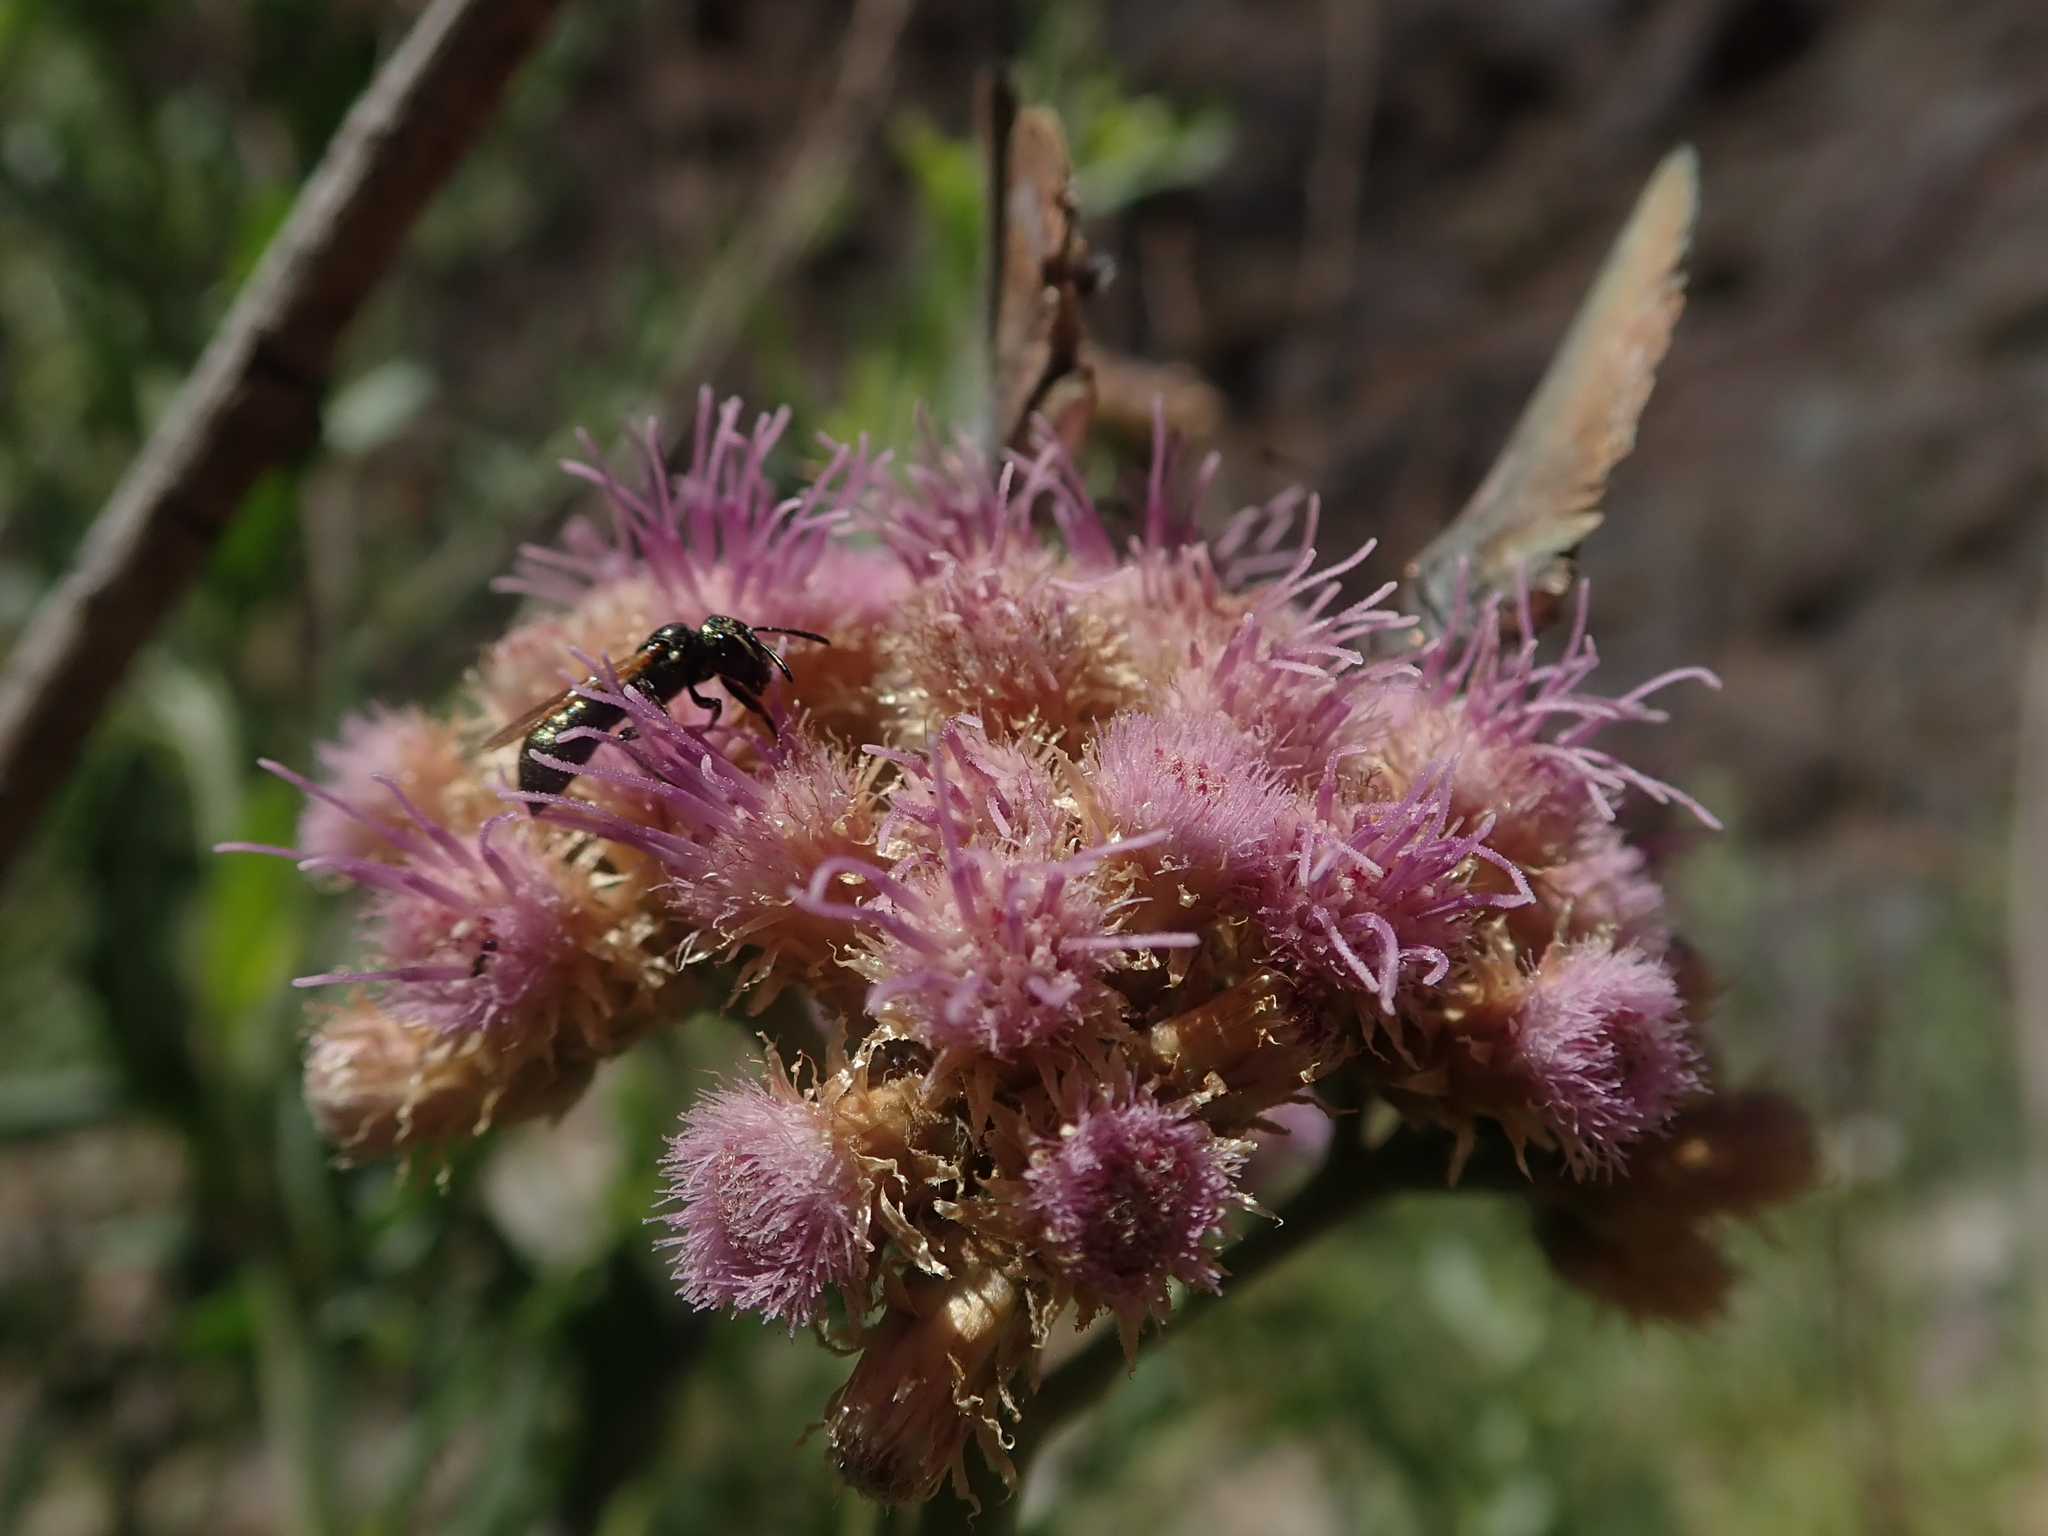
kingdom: Plantae
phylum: Tracheophyta
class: Magnoliopsida
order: Asterales
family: Asteraceae
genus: Tessaria
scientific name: Tessaria absinthioides
